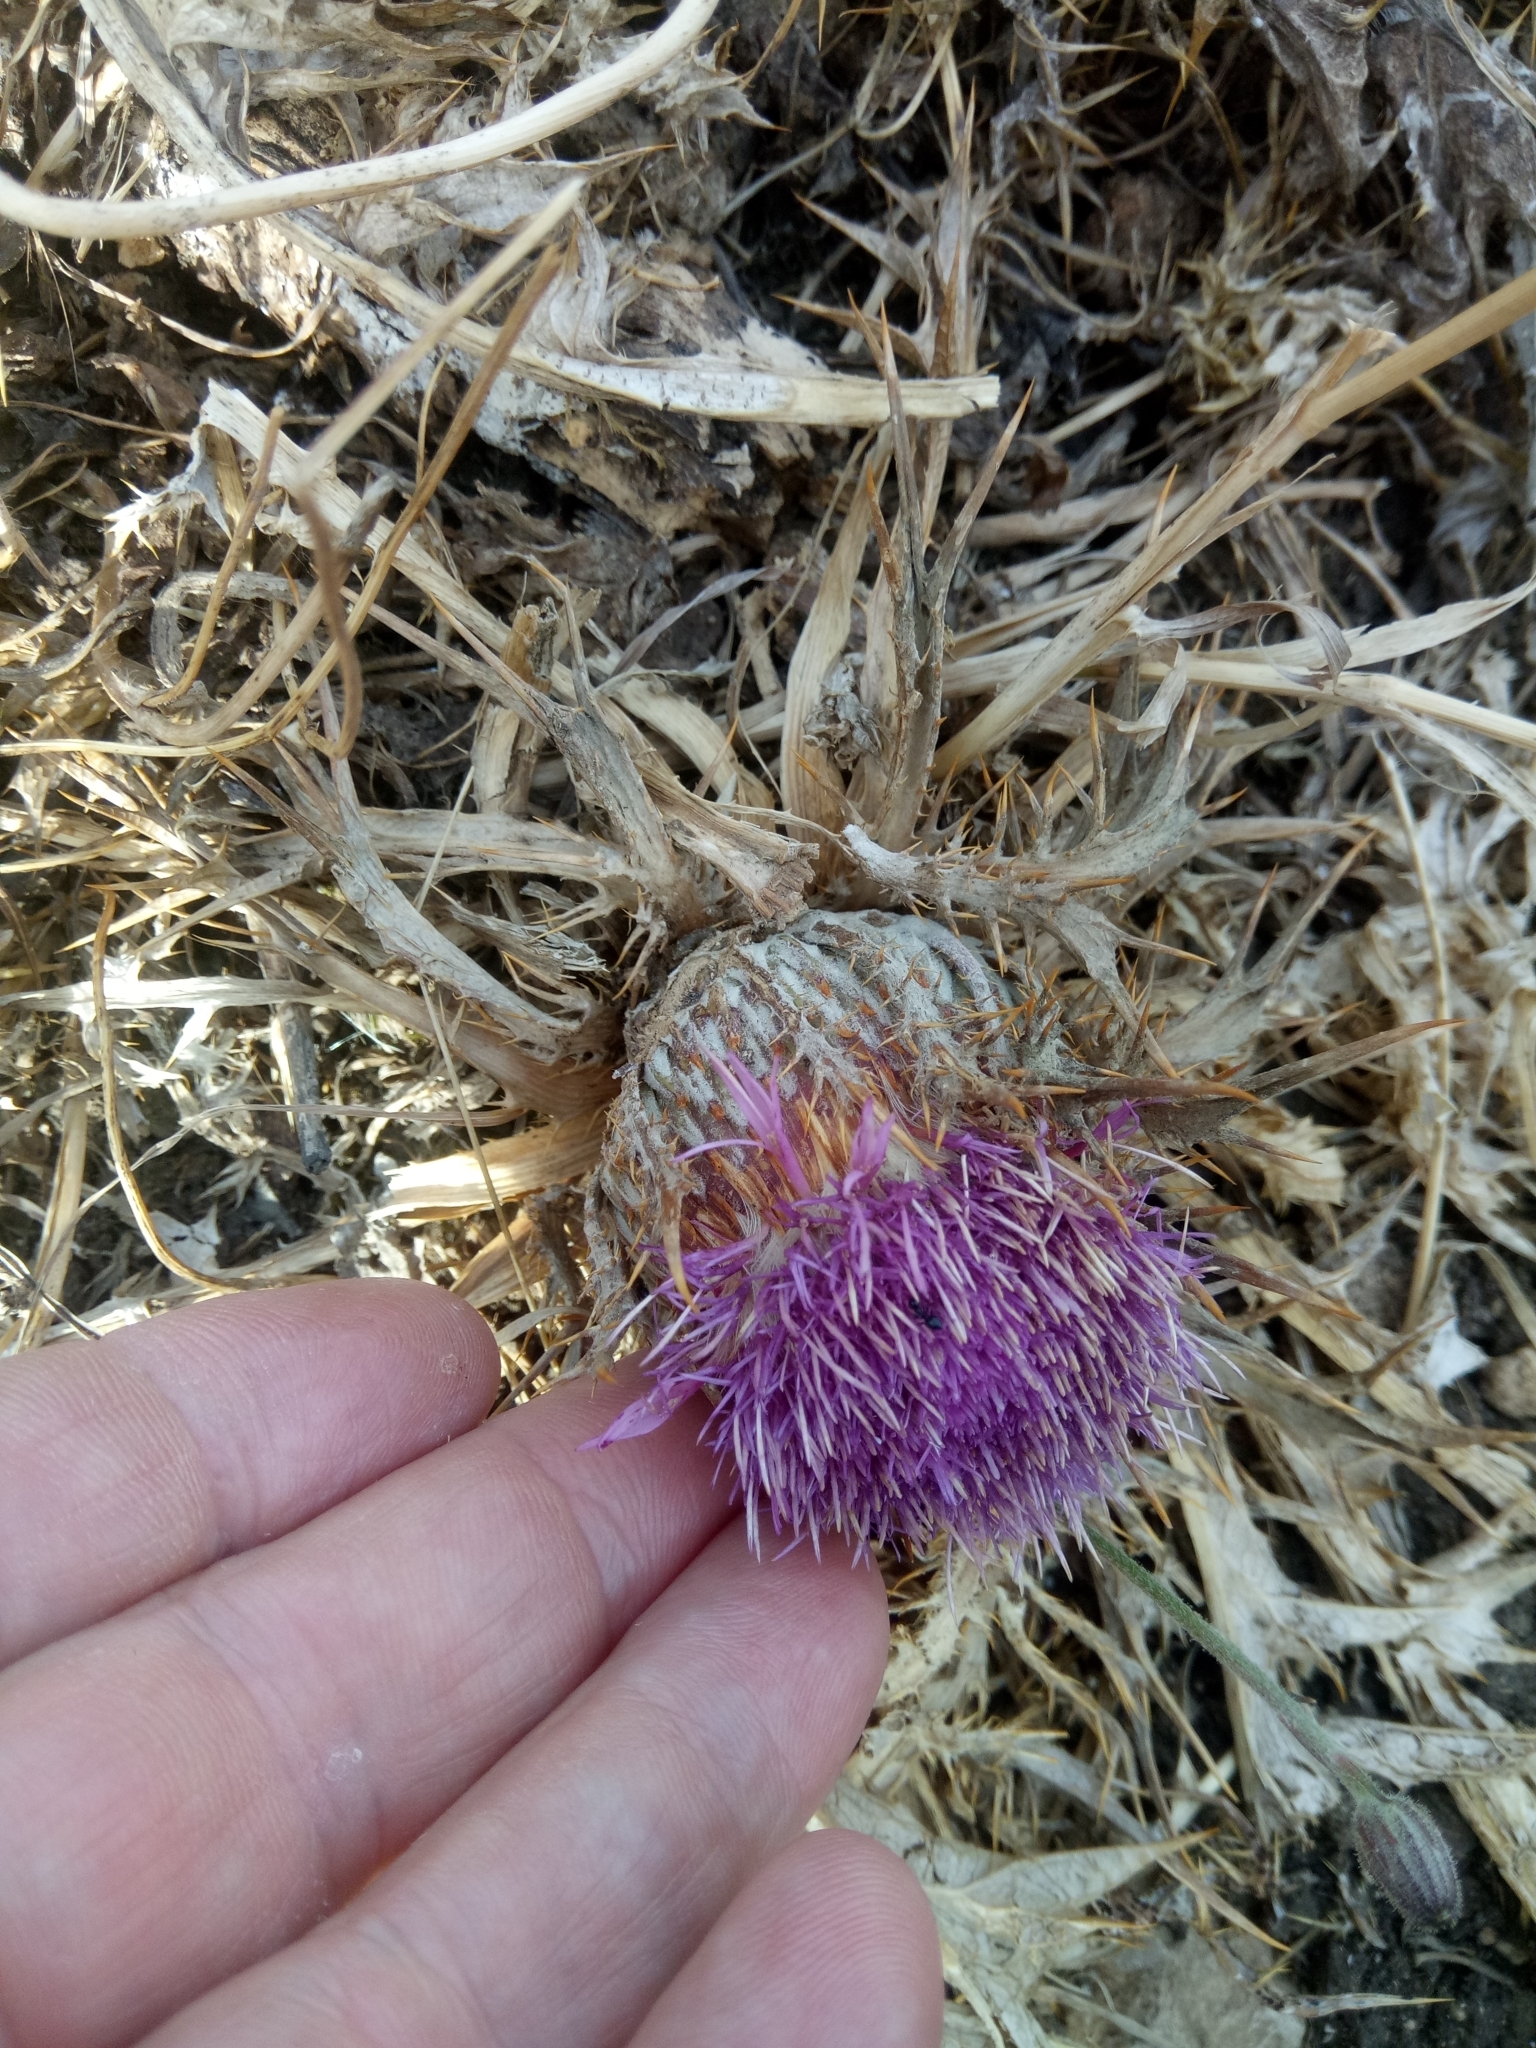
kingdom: Plantae
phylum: Tracheophyta
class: Magnoliopsida
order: Asterales
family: Asteraceae
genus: Chamaeleon
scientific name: Chamaeleon gummifer
